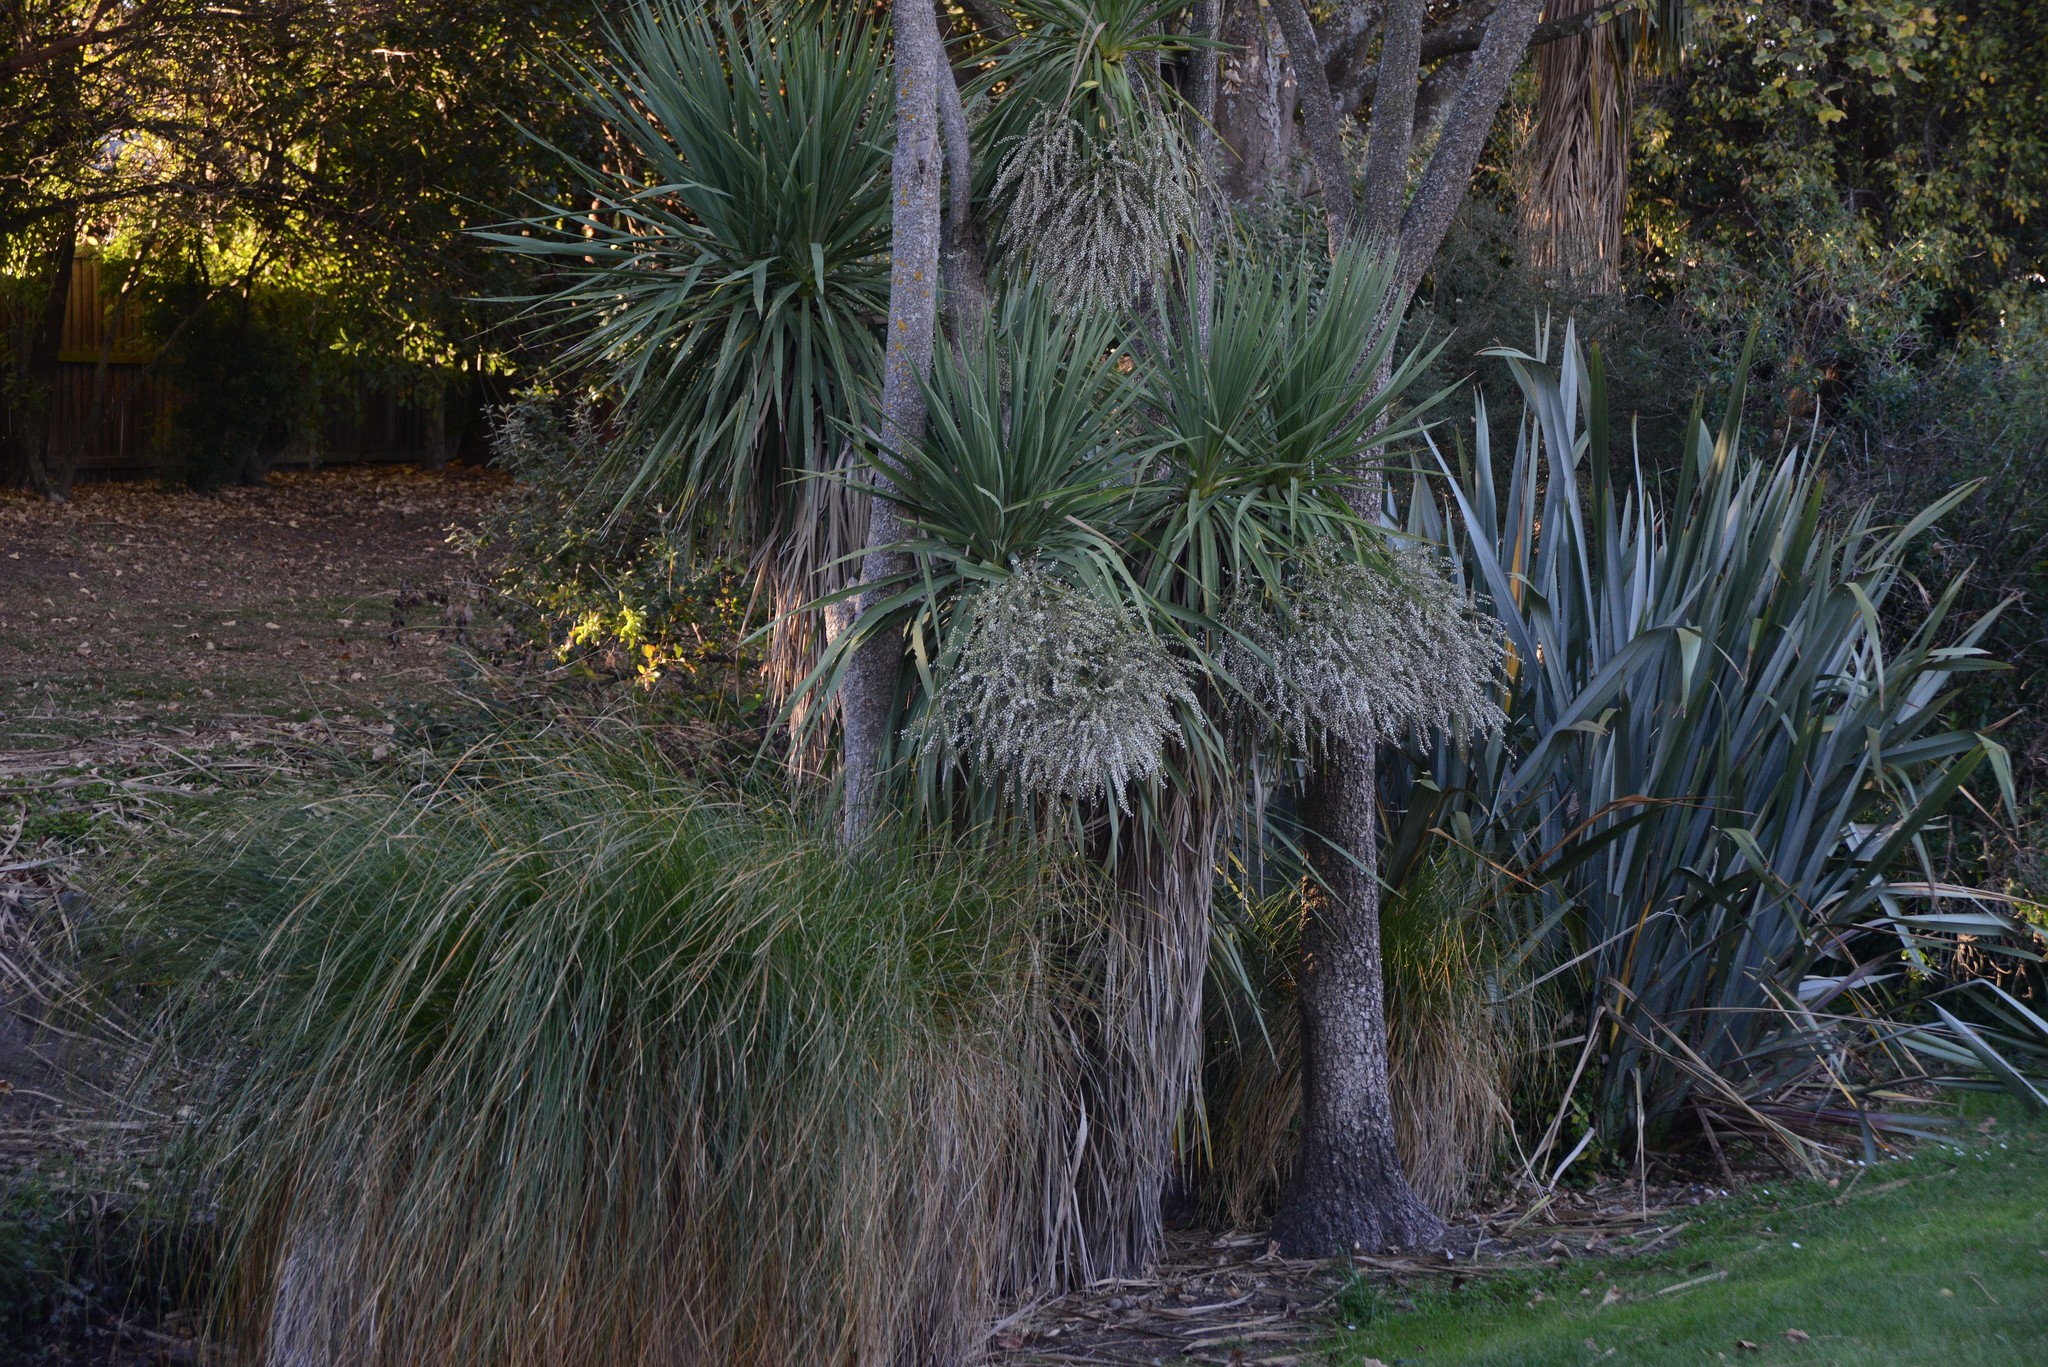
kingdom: Plantae
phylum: Tracheophyta
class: Liliopsida
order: Poales
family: Cyperaceae
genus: Carex
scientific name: Carex secta
